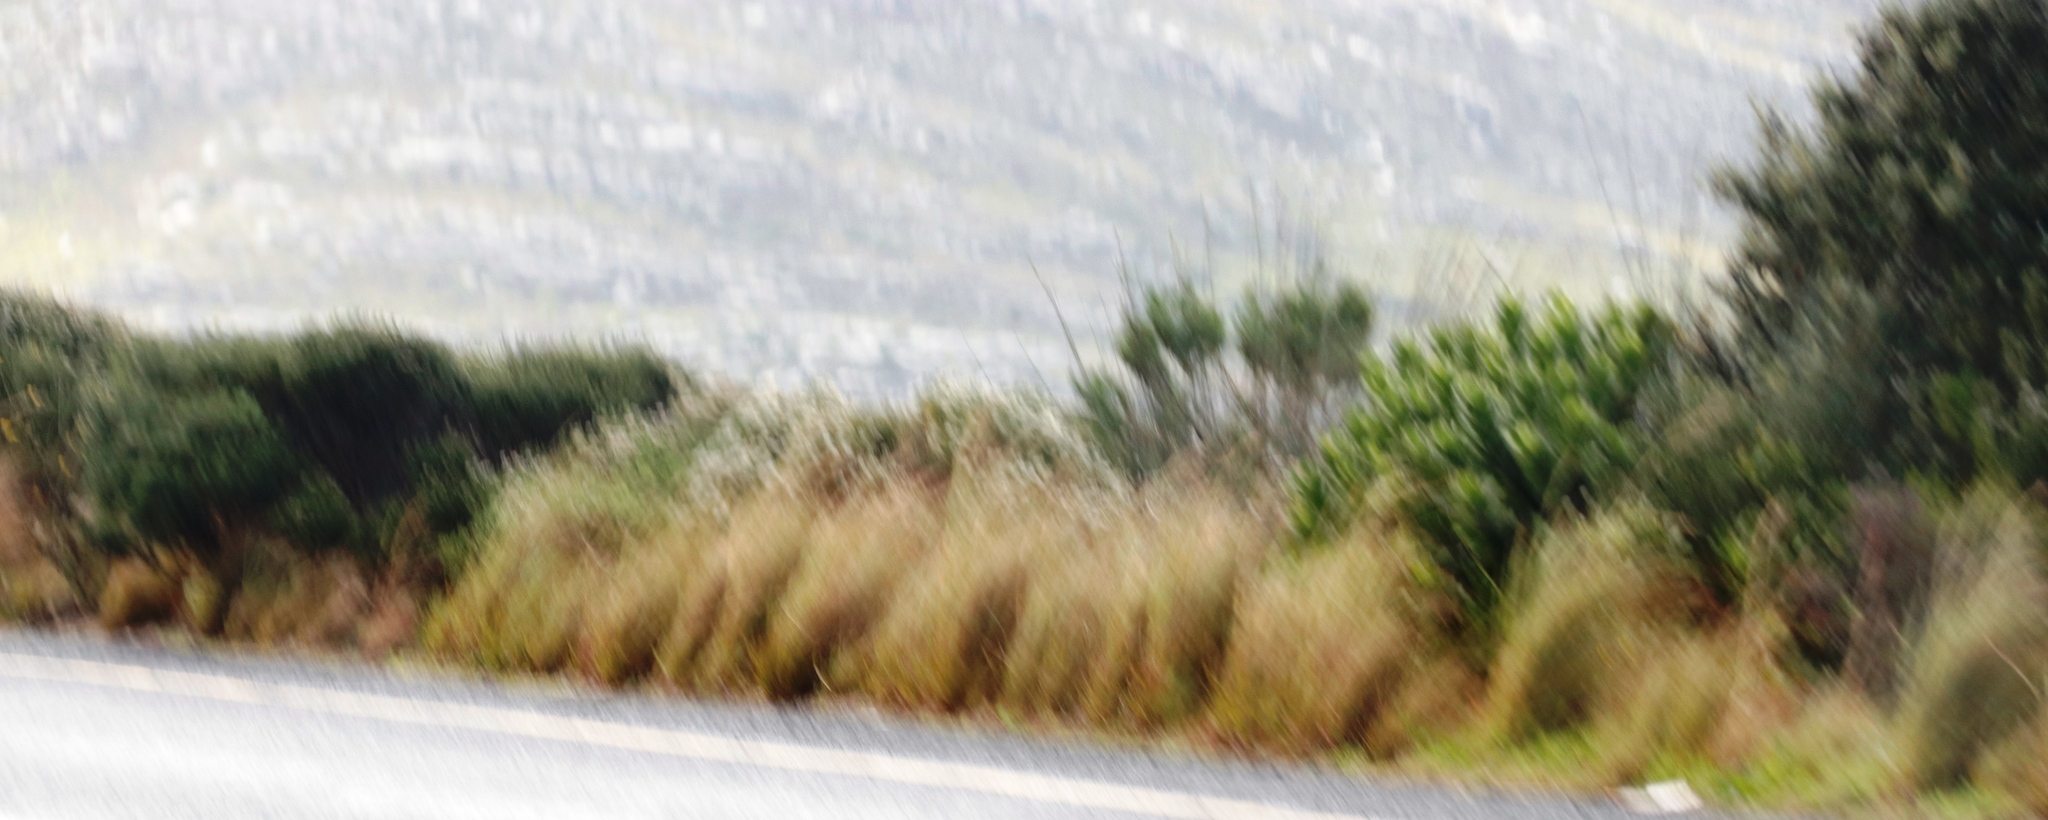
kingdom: Plantae
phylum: Tracheophyta
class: Liliopsida
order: Poales
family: Poaceae
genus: Hyparrhenia
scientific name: Hyparrhenia hirta
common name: Thatching grass
